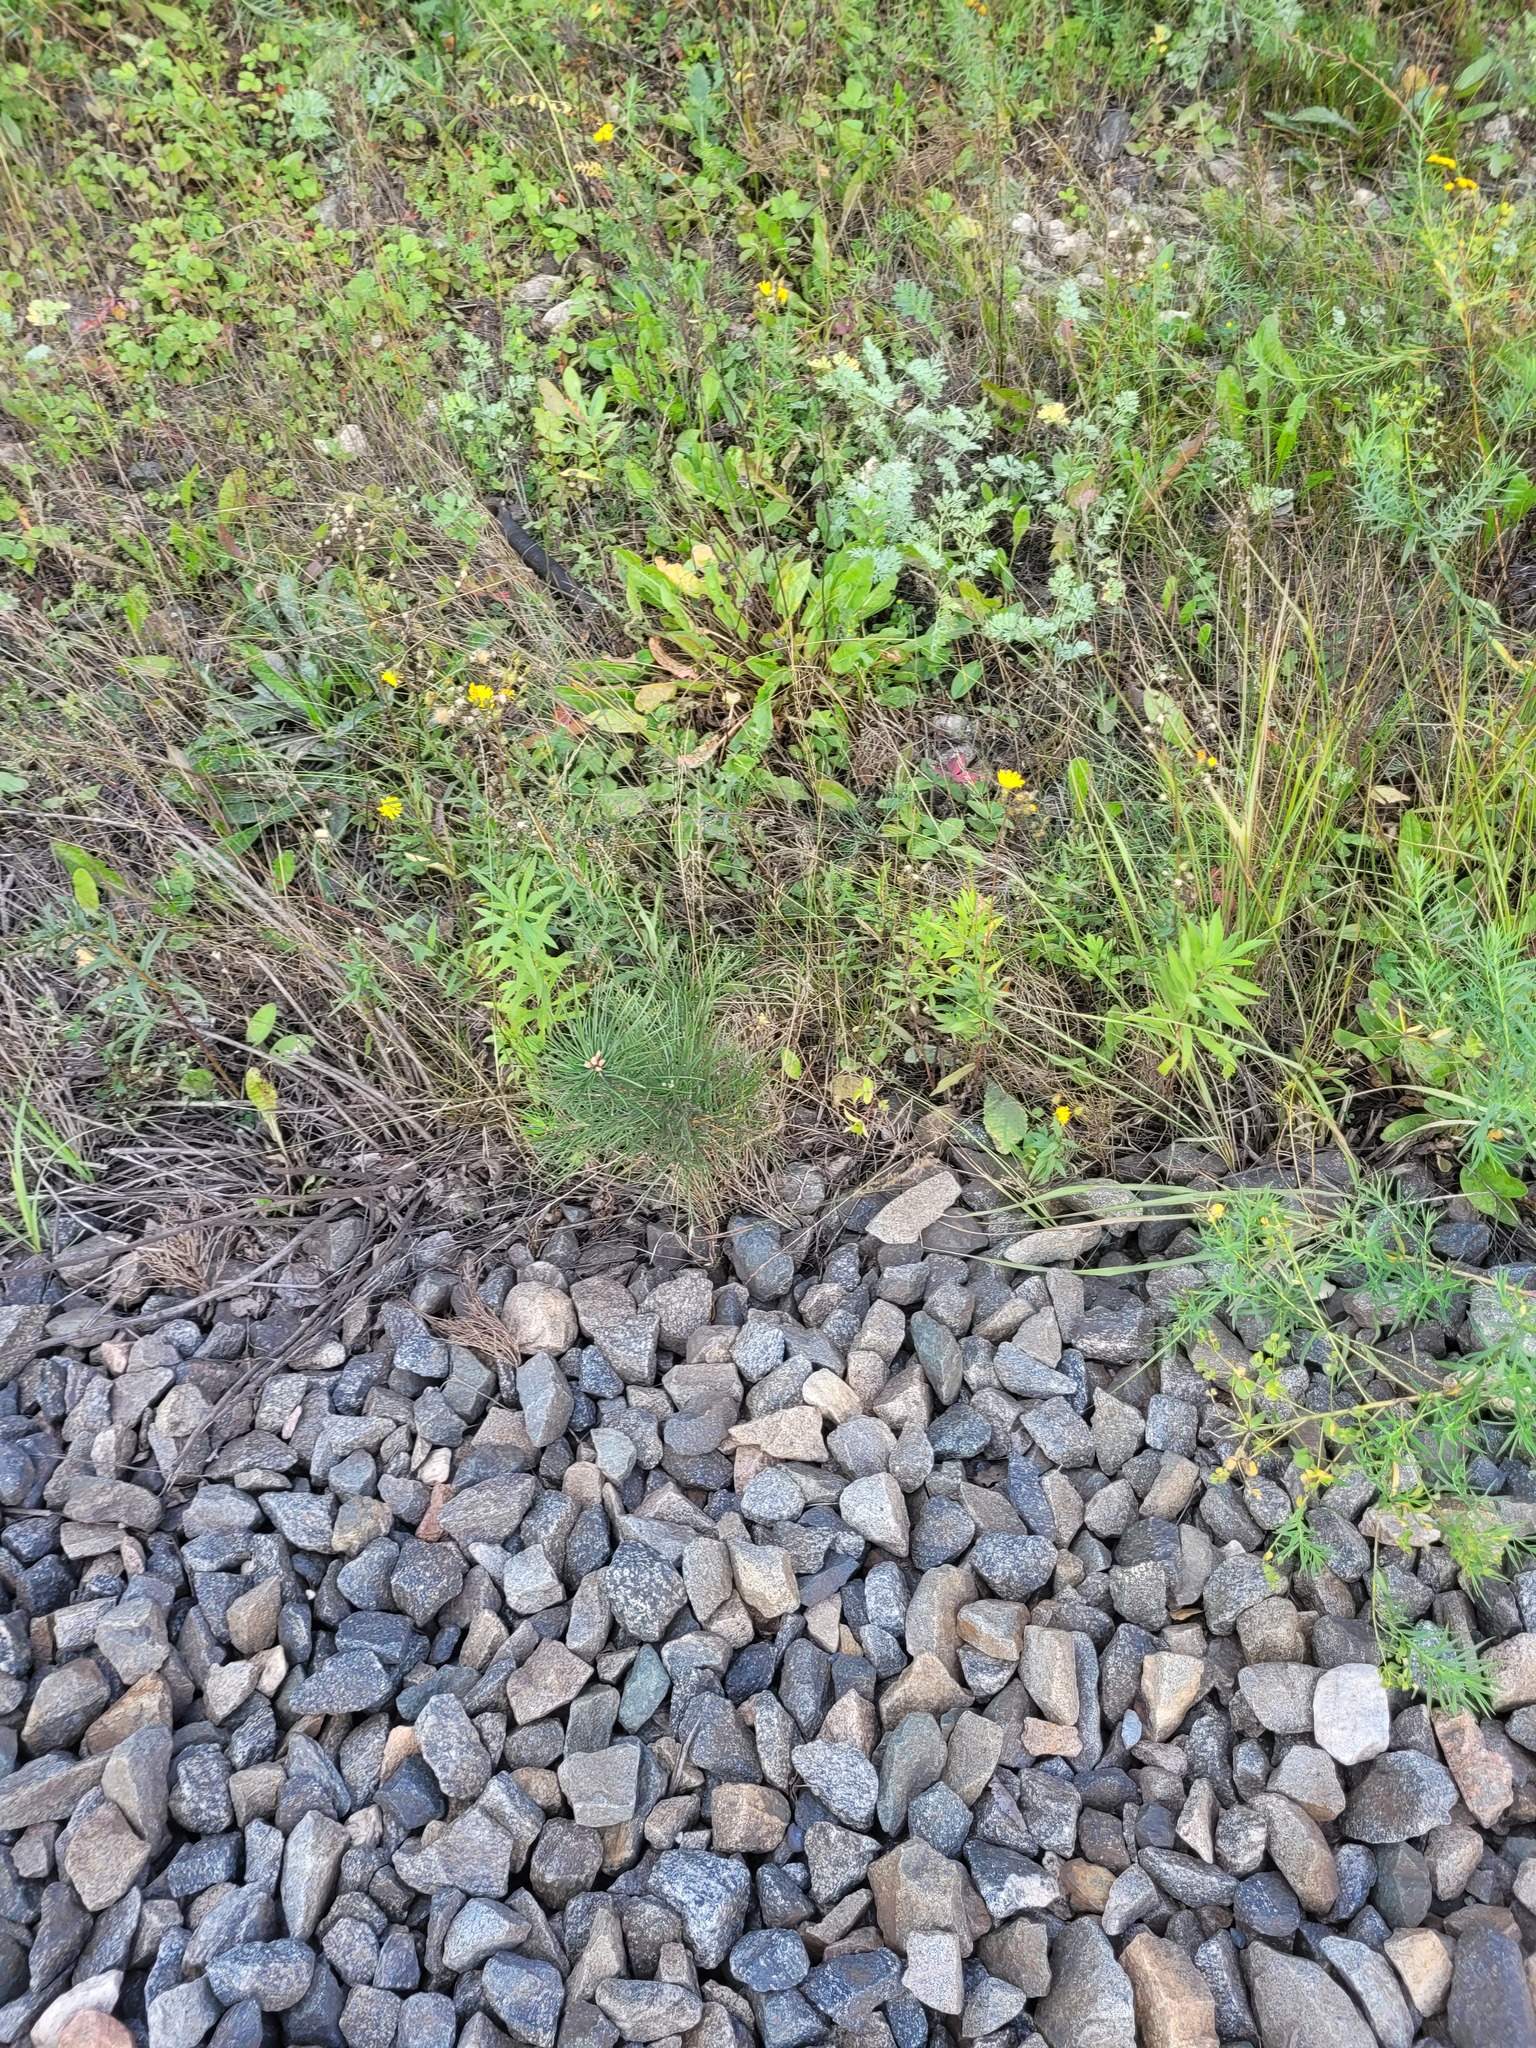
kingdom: Plantae
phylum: Tracheophyta
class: Pinopsida
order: Pinales
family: Pinaceae
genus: Pinus
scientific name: Pinus sylvestris
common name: Scots pine
